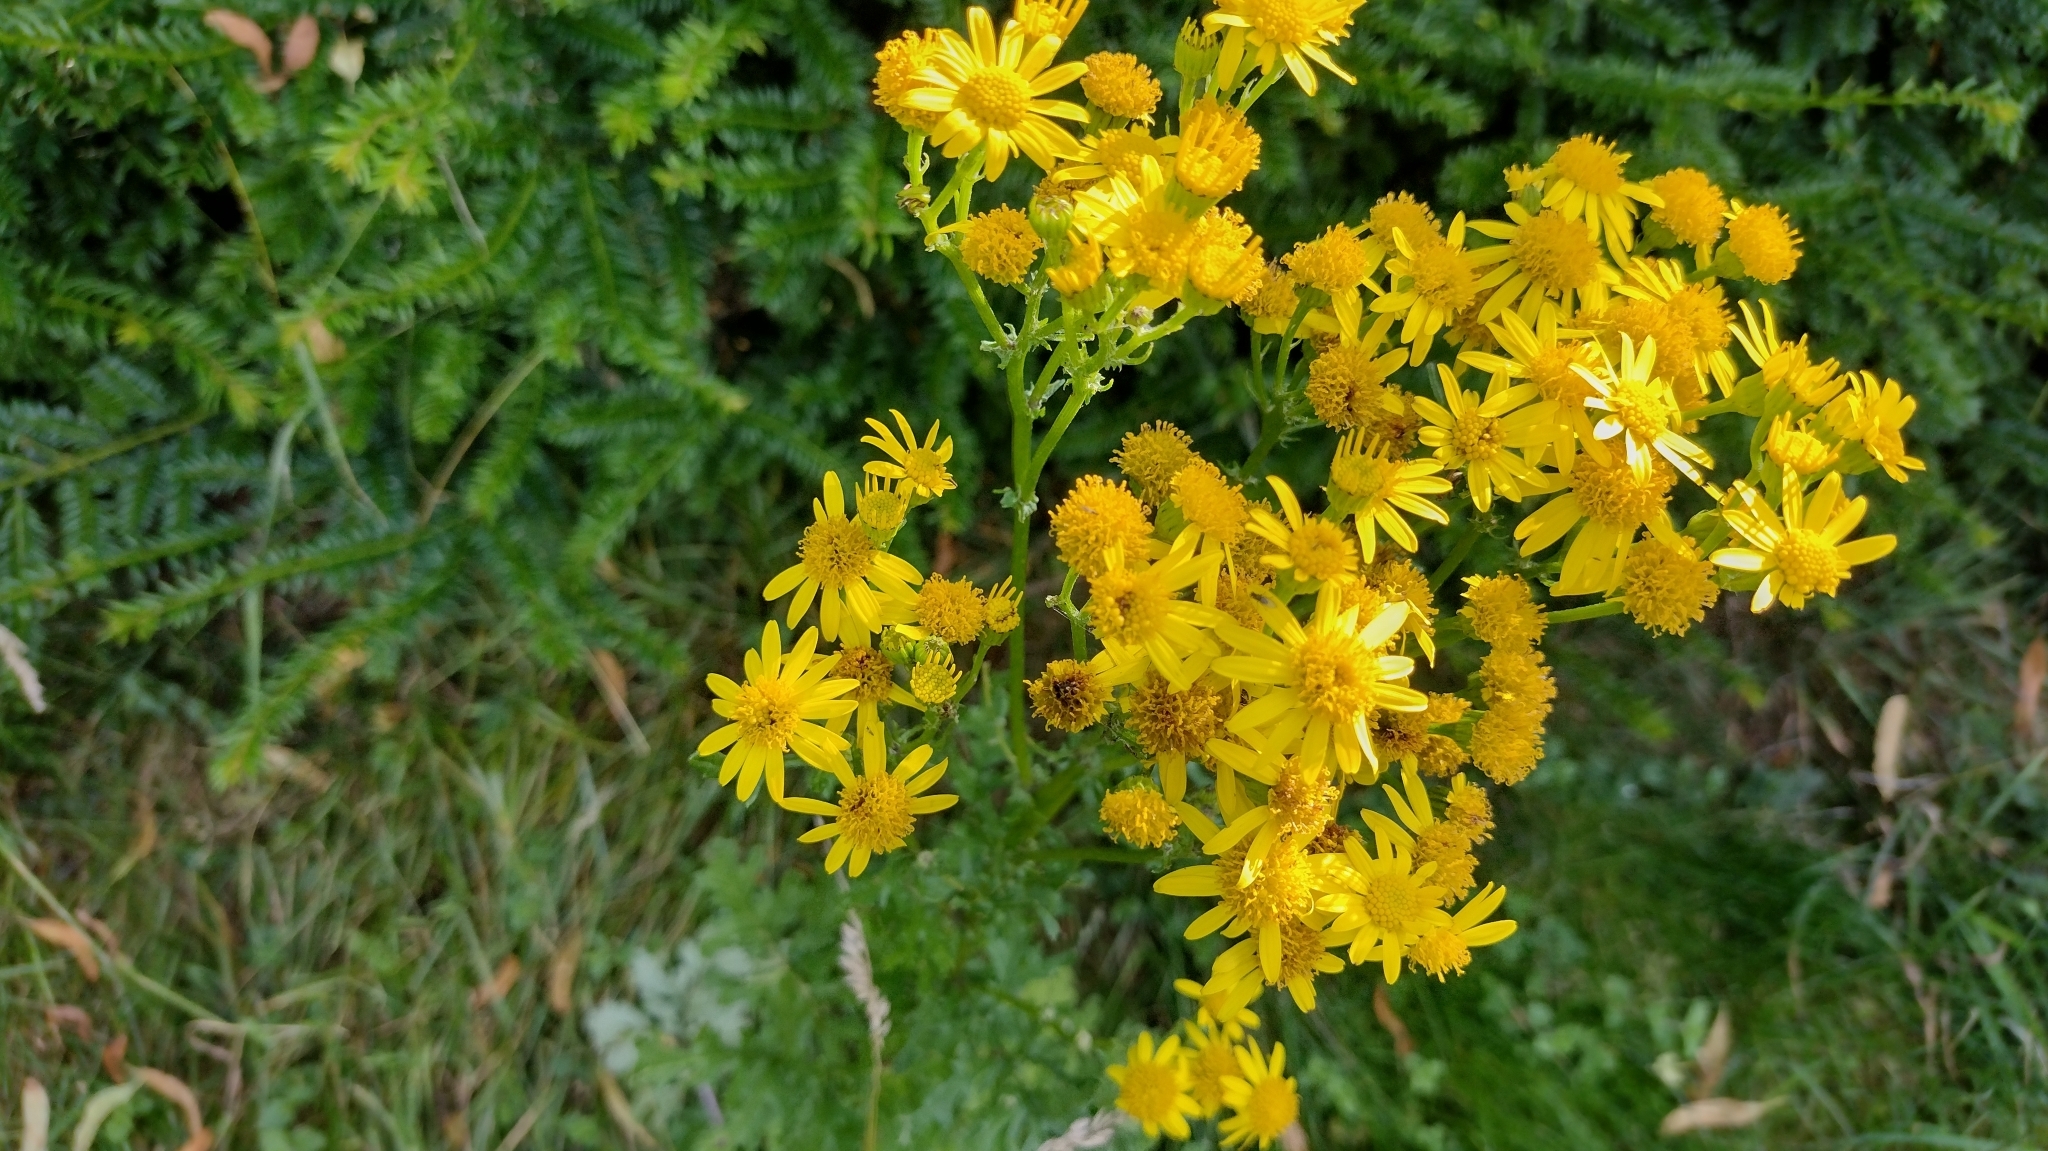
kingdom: Plantae
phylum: Tracheophyta
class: Magnoliopsida
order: Asterales
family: Asteraceae
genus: Jacobaea
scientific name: Jacobaea vulgaris
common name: Stinking willie
